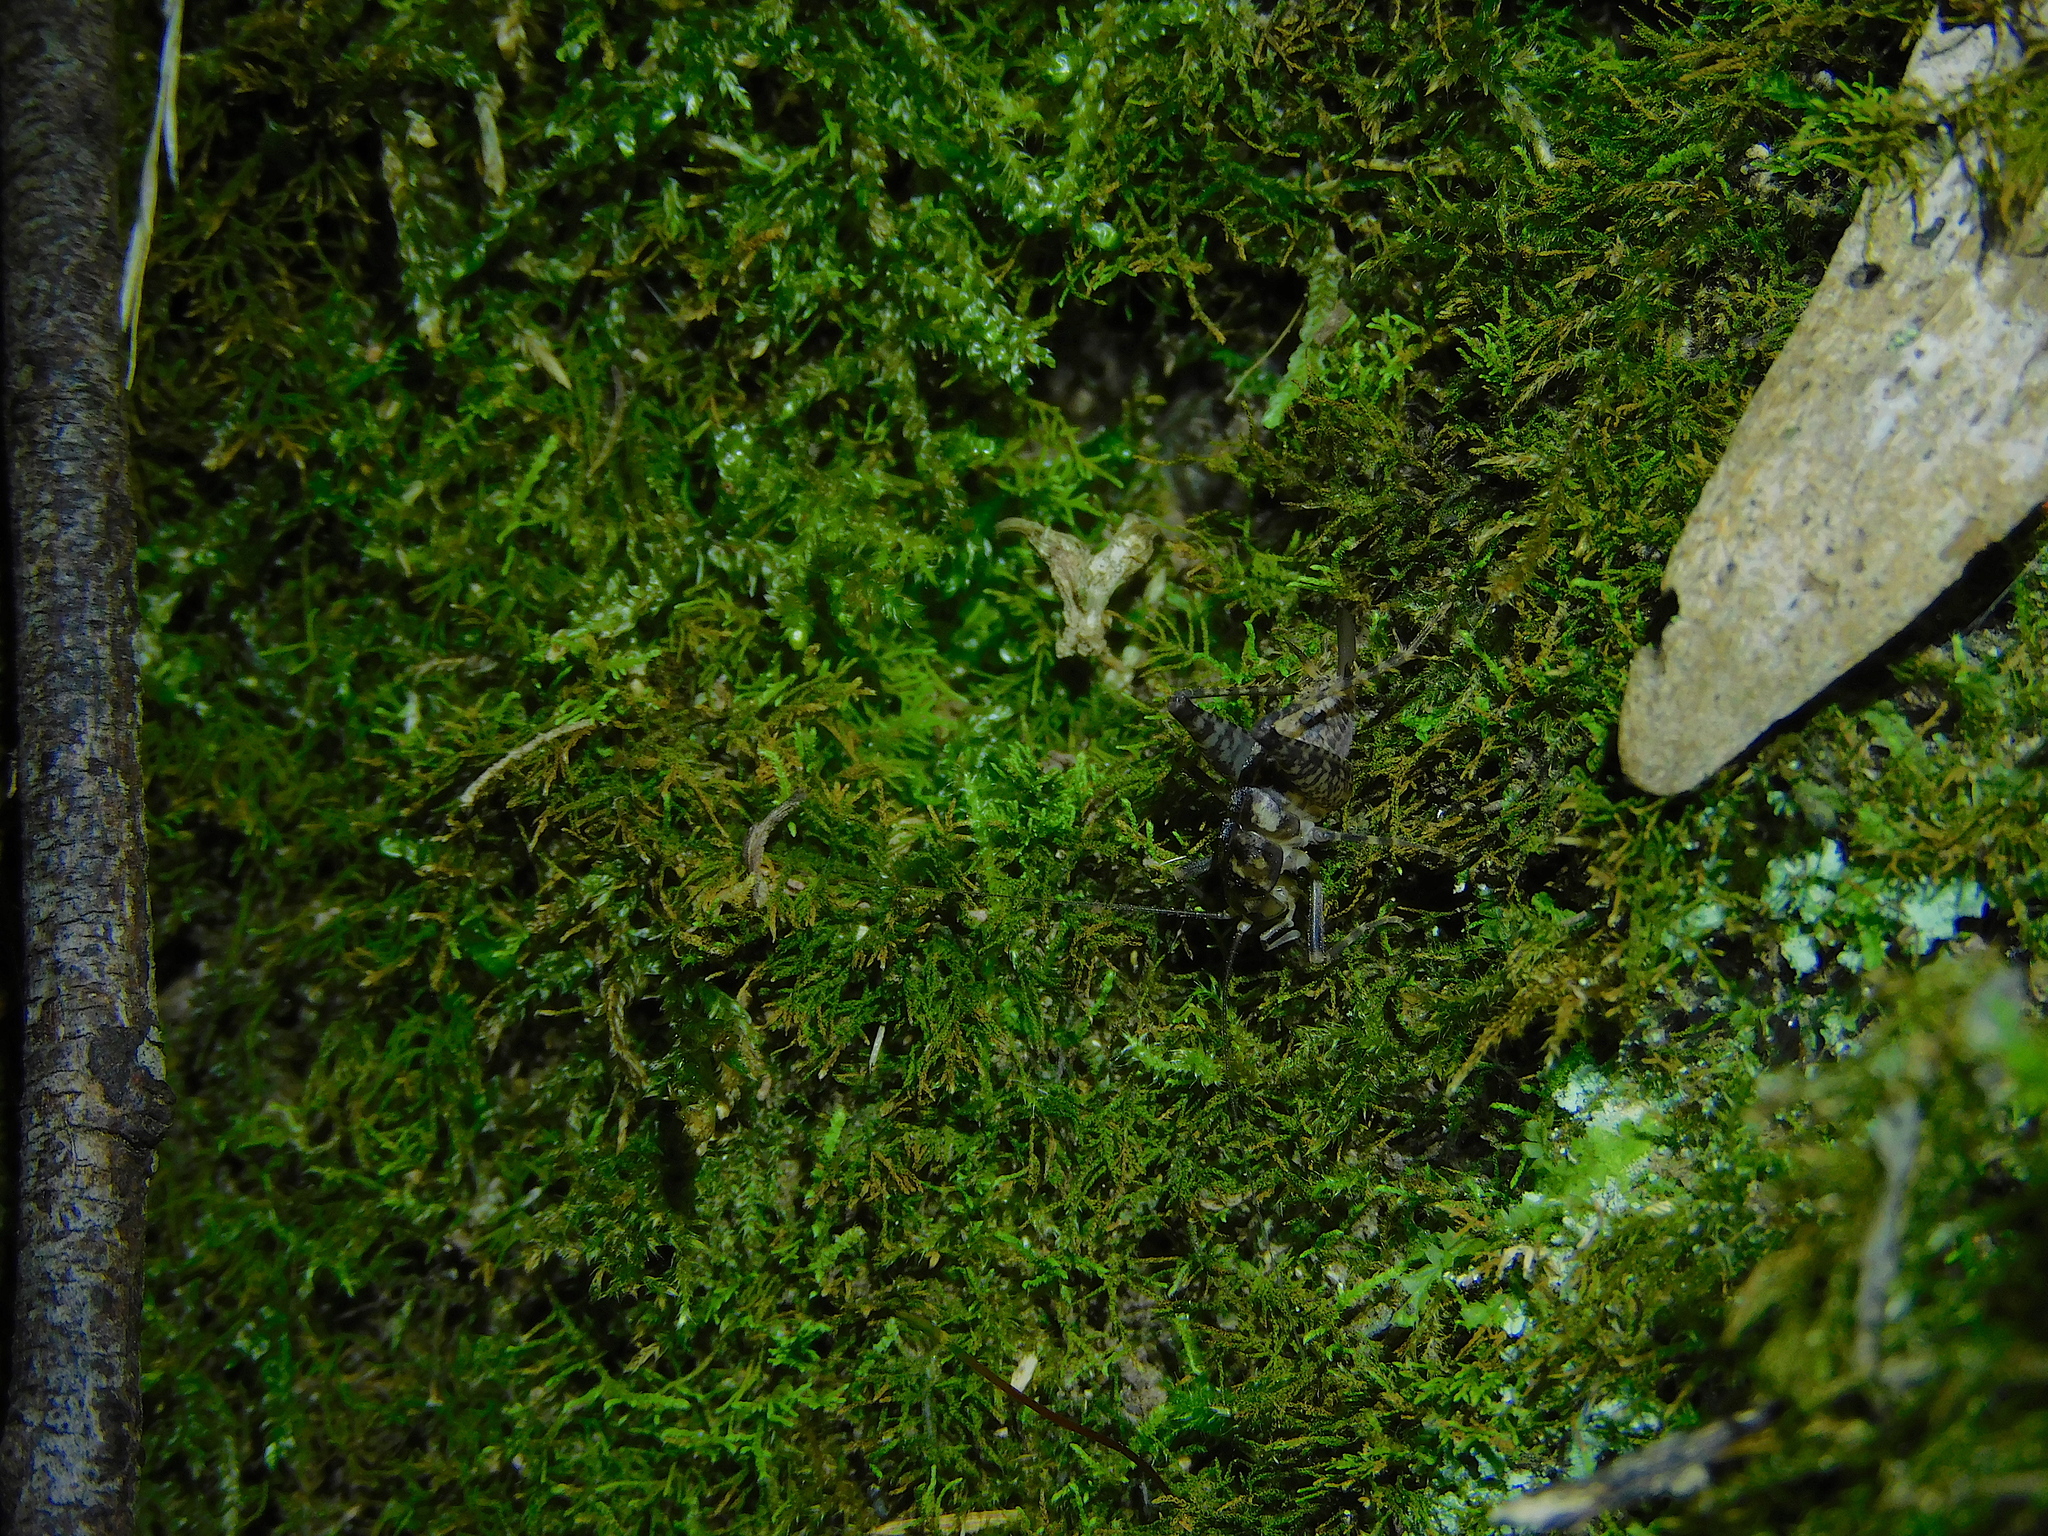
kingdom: Animalia
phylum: Arthropoda
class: Insecta
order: Orthoptera
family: Rhaphidophoridae
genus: Parvotettix
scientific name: Parvotettix domesticus
